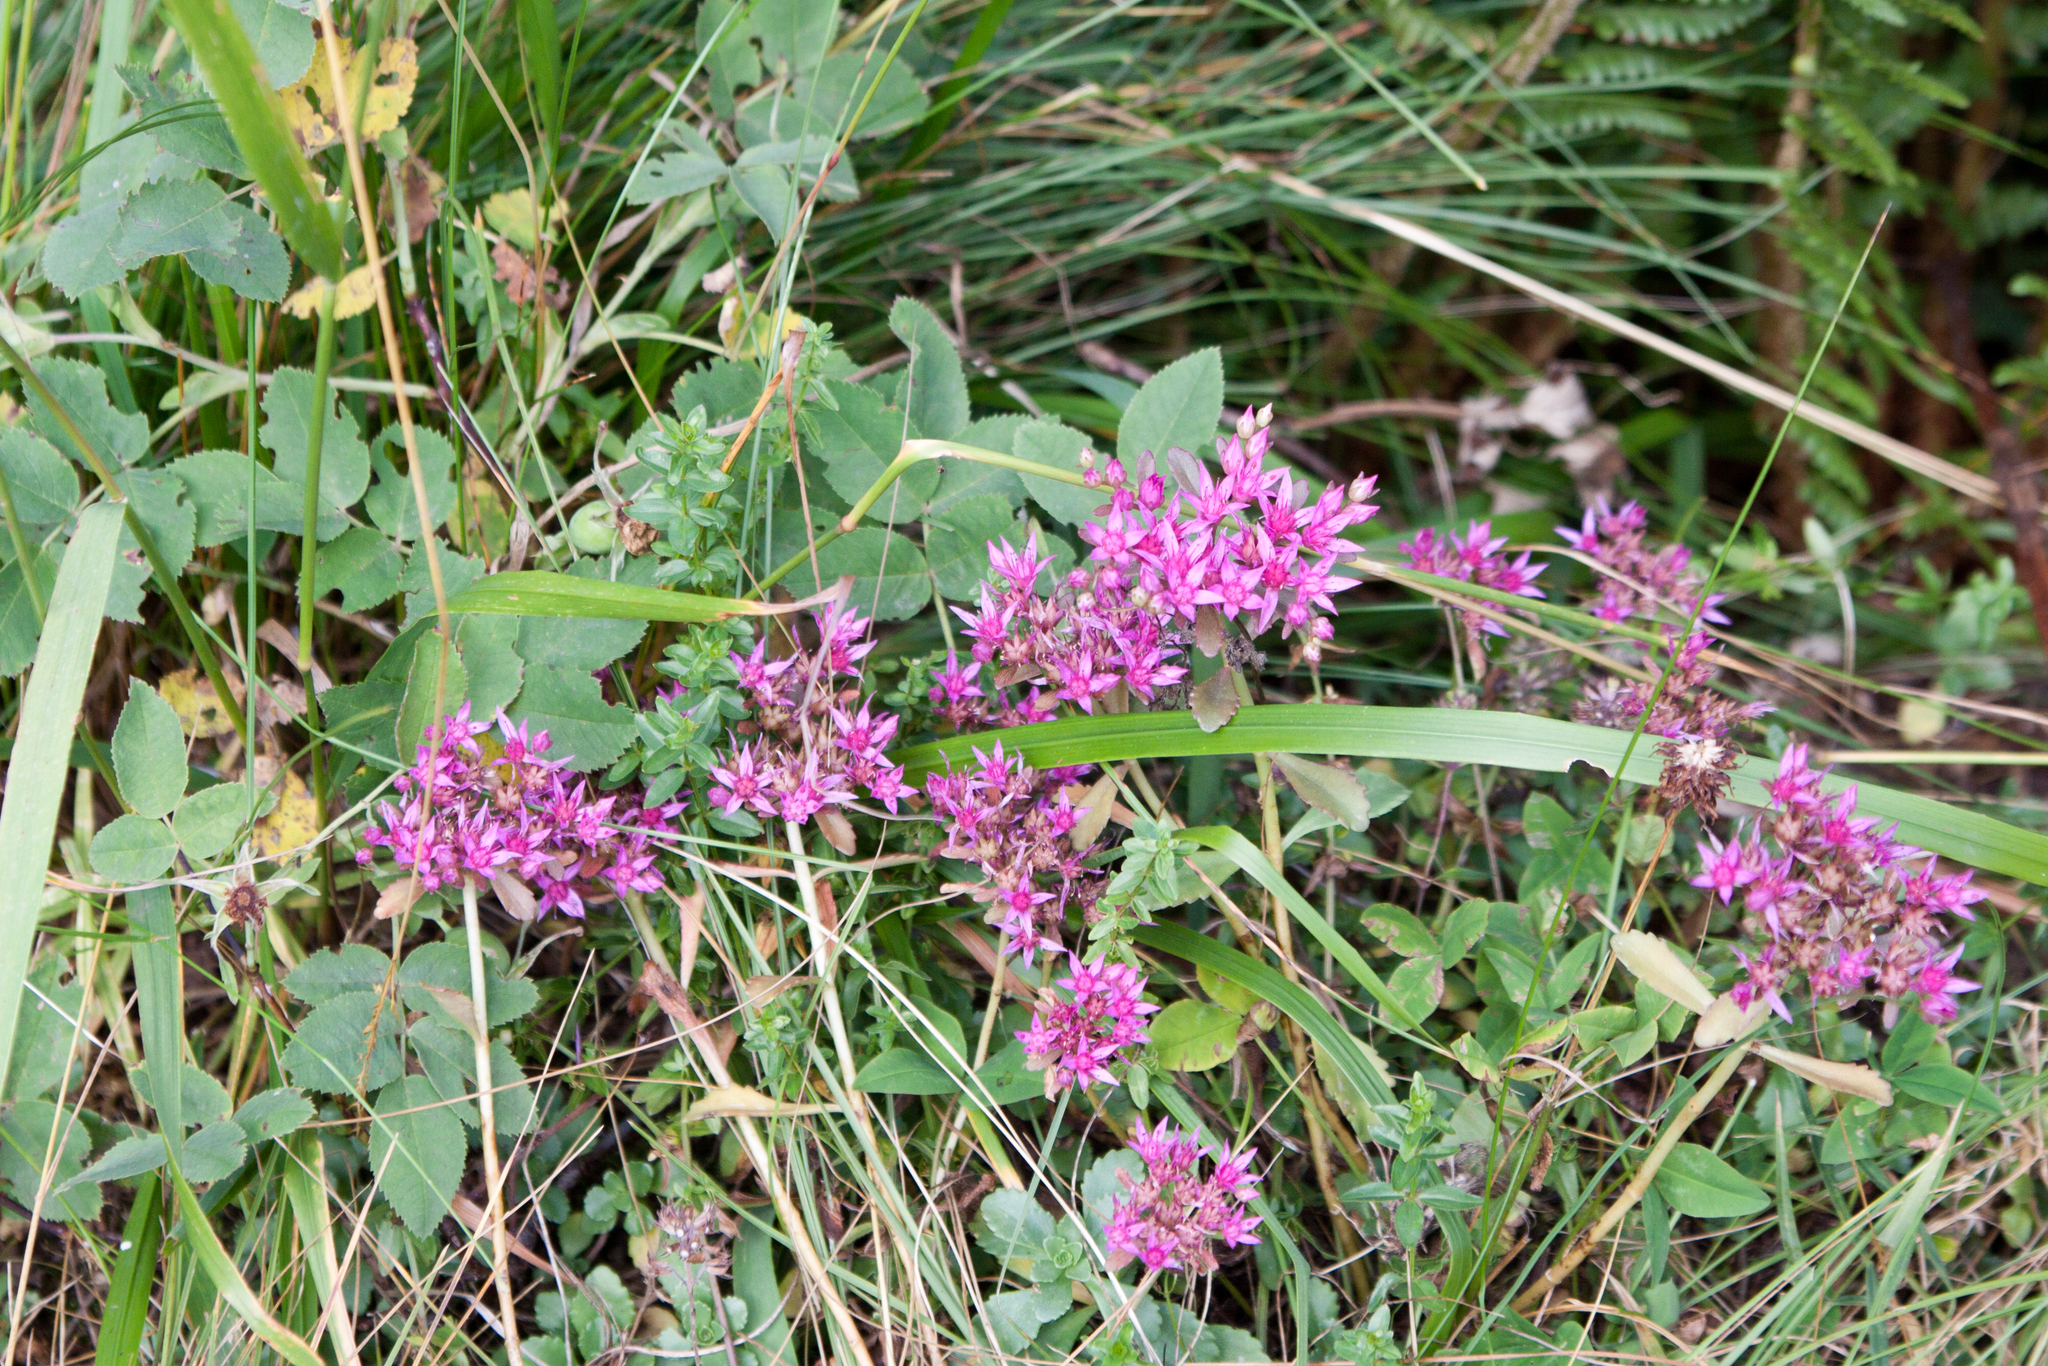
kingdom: Plantae
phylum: Tracheophyta
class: Magnoliopsida
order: Saxifragales
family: Crassulaceae
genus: Phedimus
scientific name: Phedimus spurius
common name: Caucasian stonecrop
